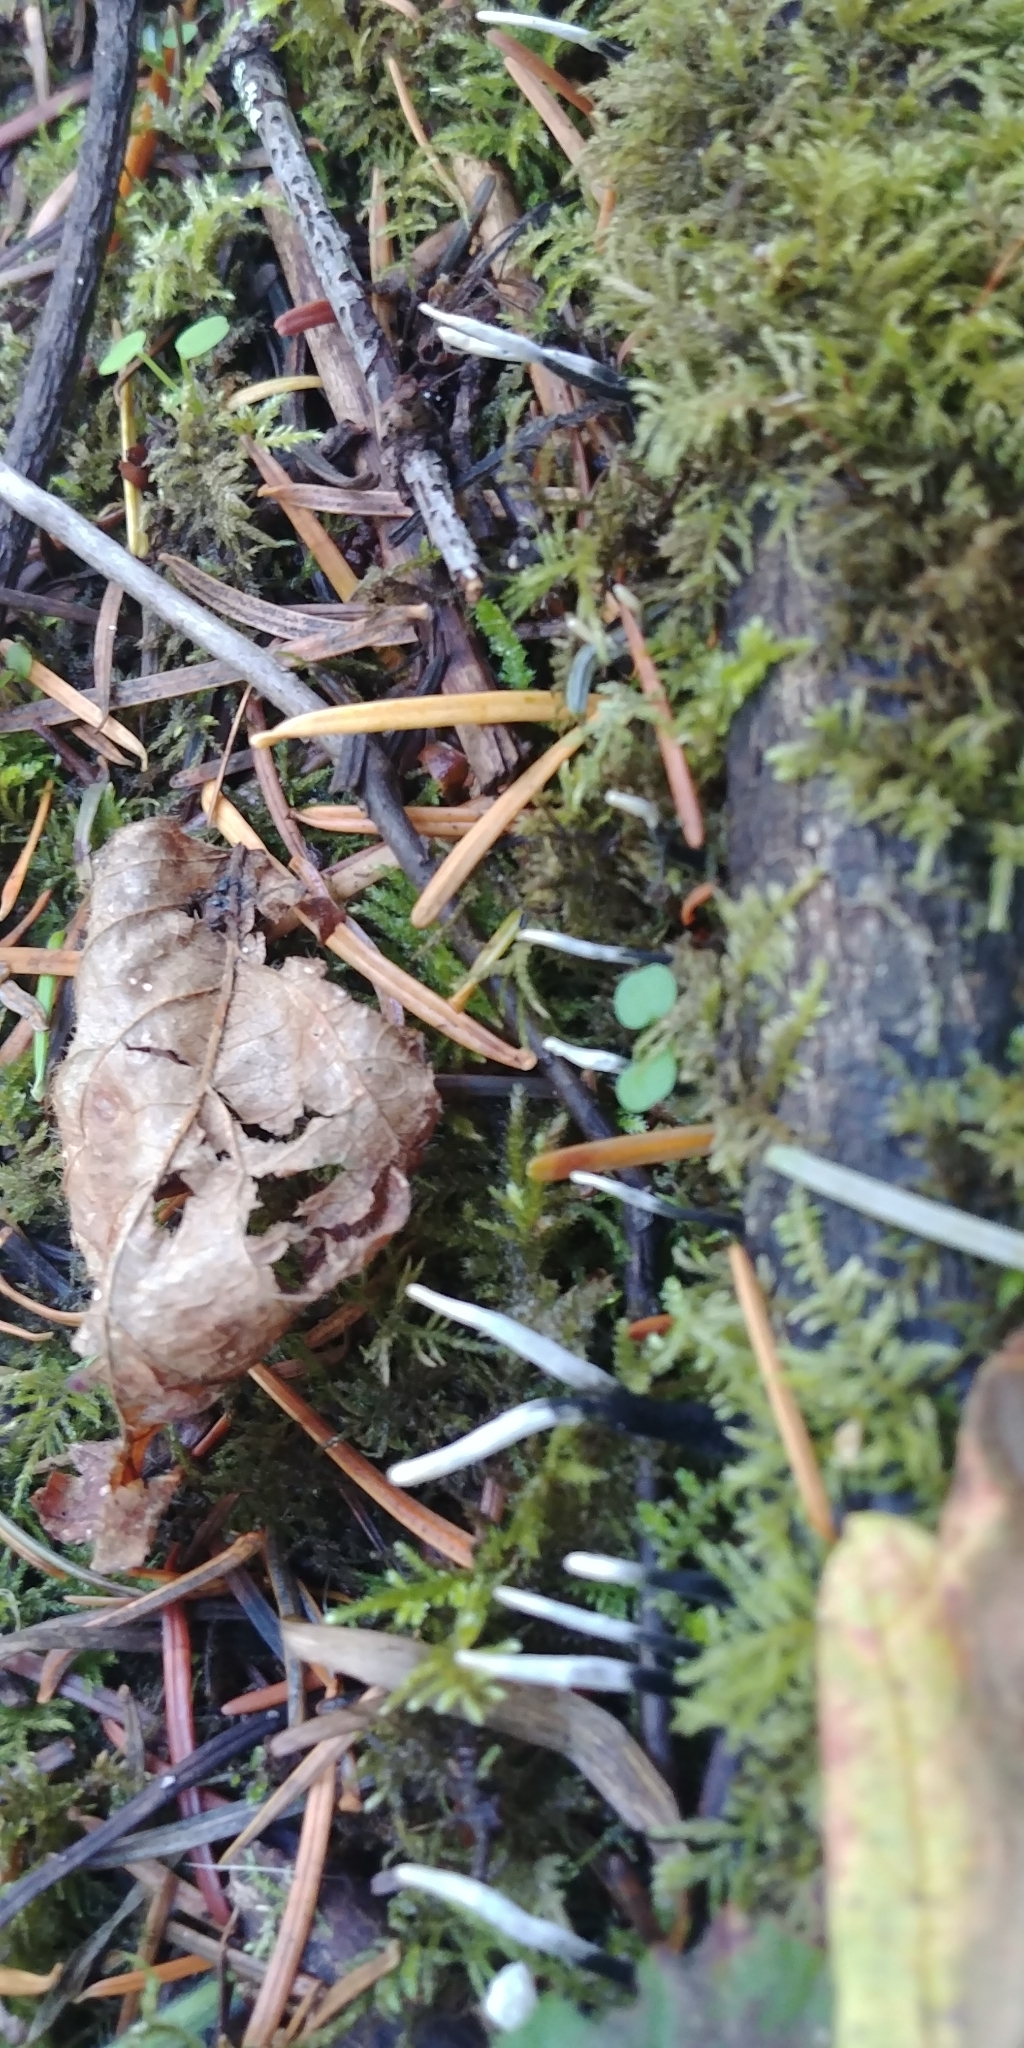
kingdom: Fungi
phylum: Ascomycota
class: Sordariomycetes
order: Xylariales
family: Xylariaceae
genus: Xylaria
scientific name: Xylaria hypoxylon
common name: Candle-snuff fungus
